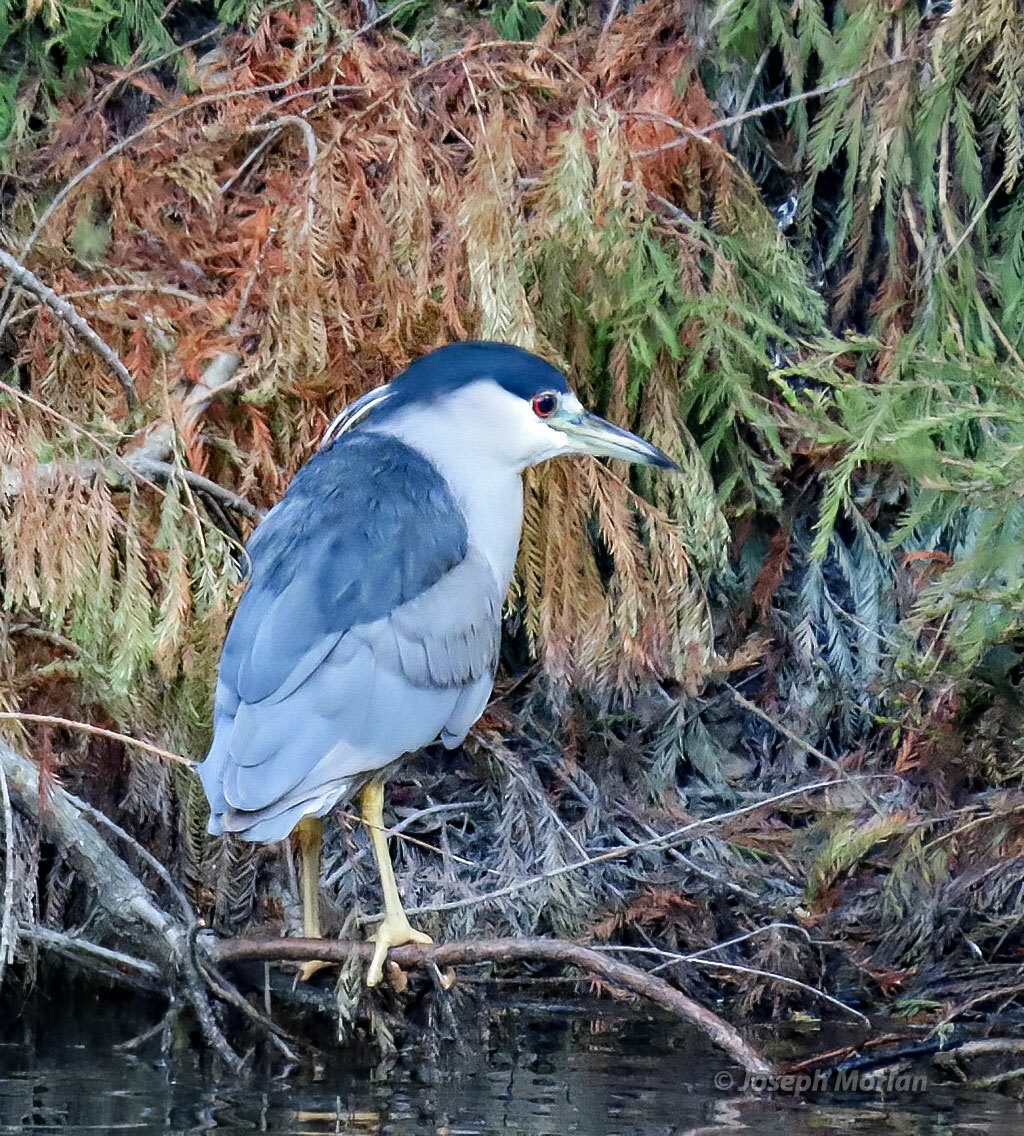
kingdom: Animalia
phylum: Chordata
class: Aves
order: Pelecaniformes
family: Ardeidae
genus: Nycticorax
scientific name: Nycticorax nycticorax
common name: Black-crowned night heron
